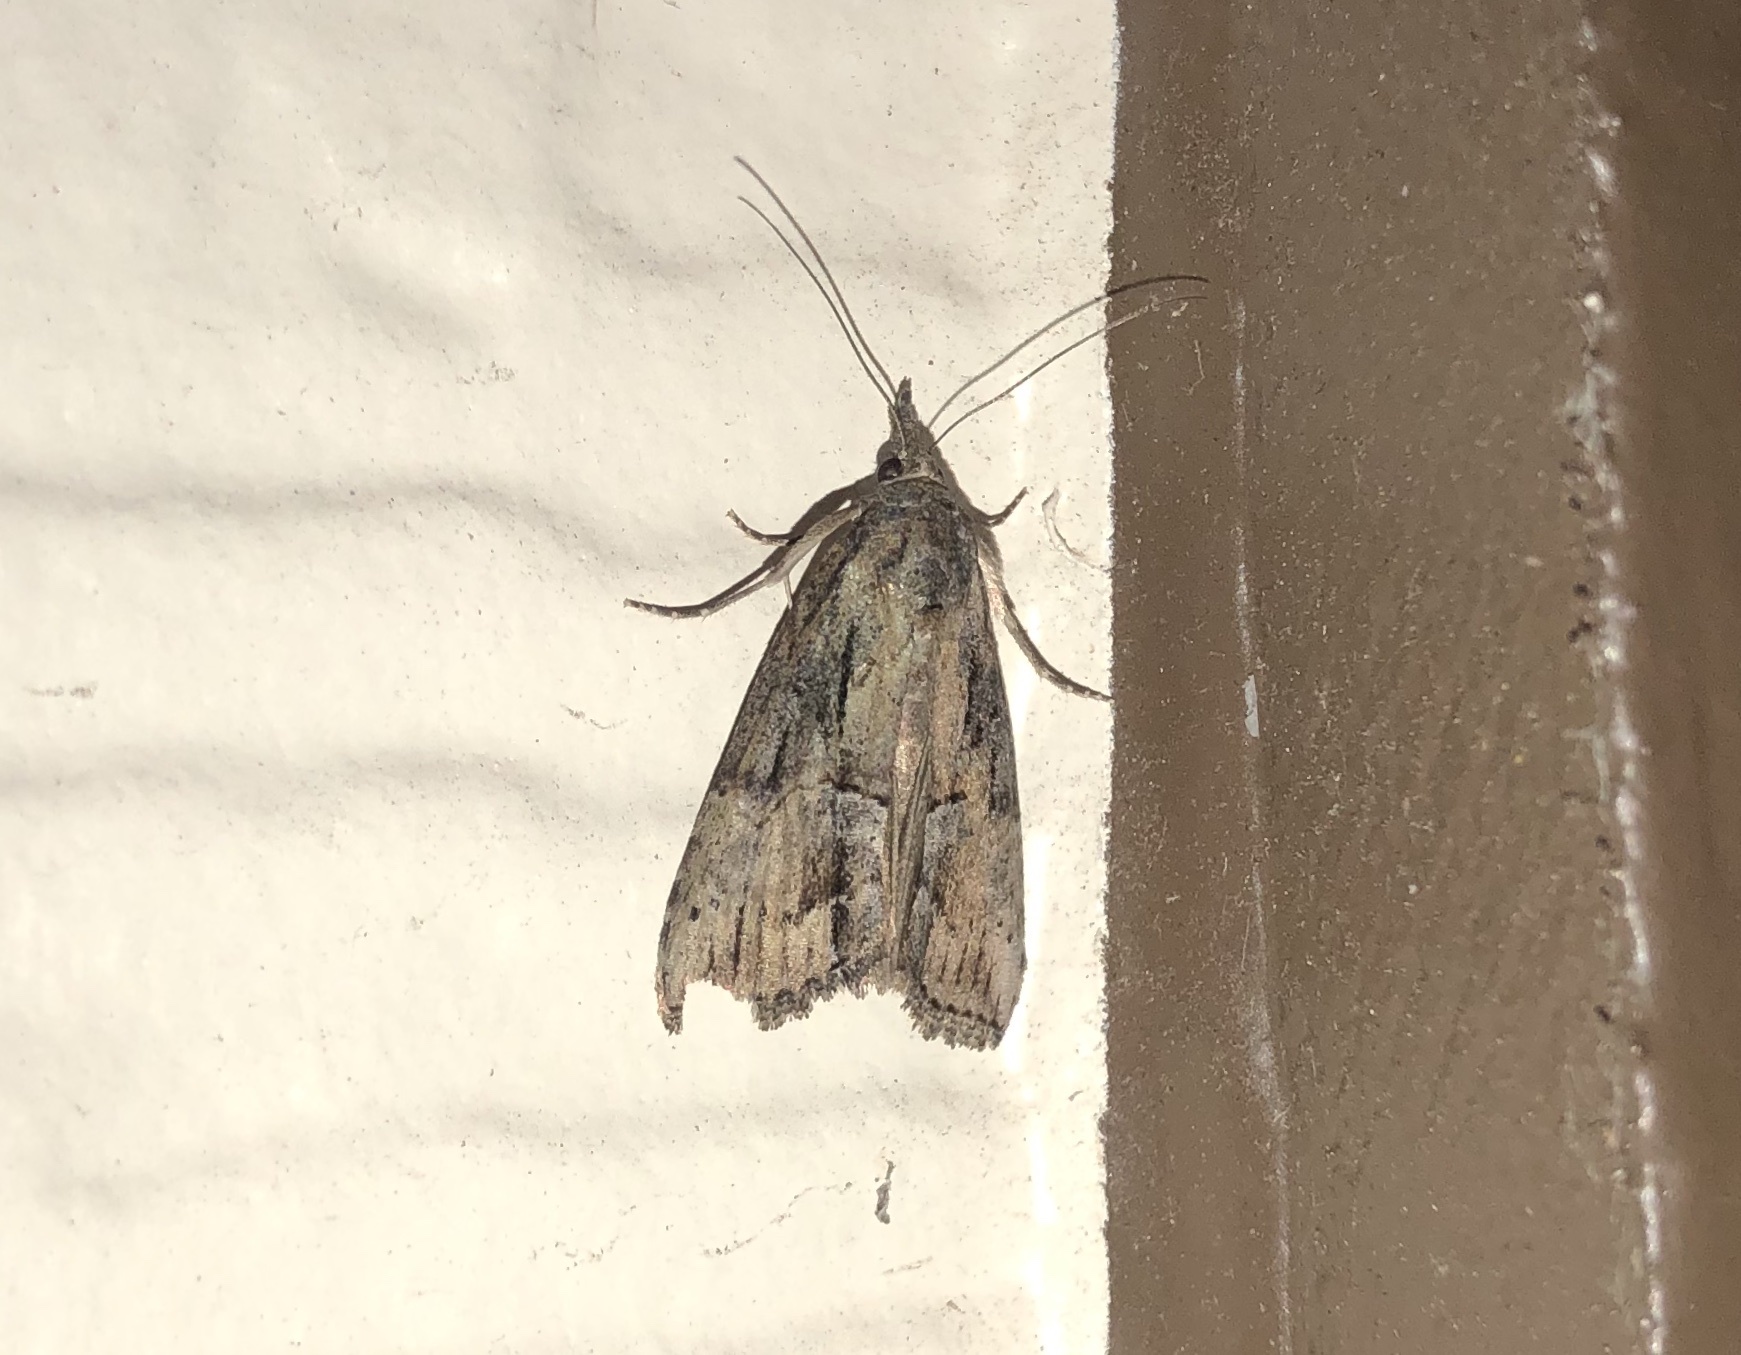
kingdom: Animalia
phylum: Arthropoda
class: Insecta
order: Lepidoptera
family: Erebidae
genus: Hypena
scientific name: Hypena scabra
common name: Green cloverworm
